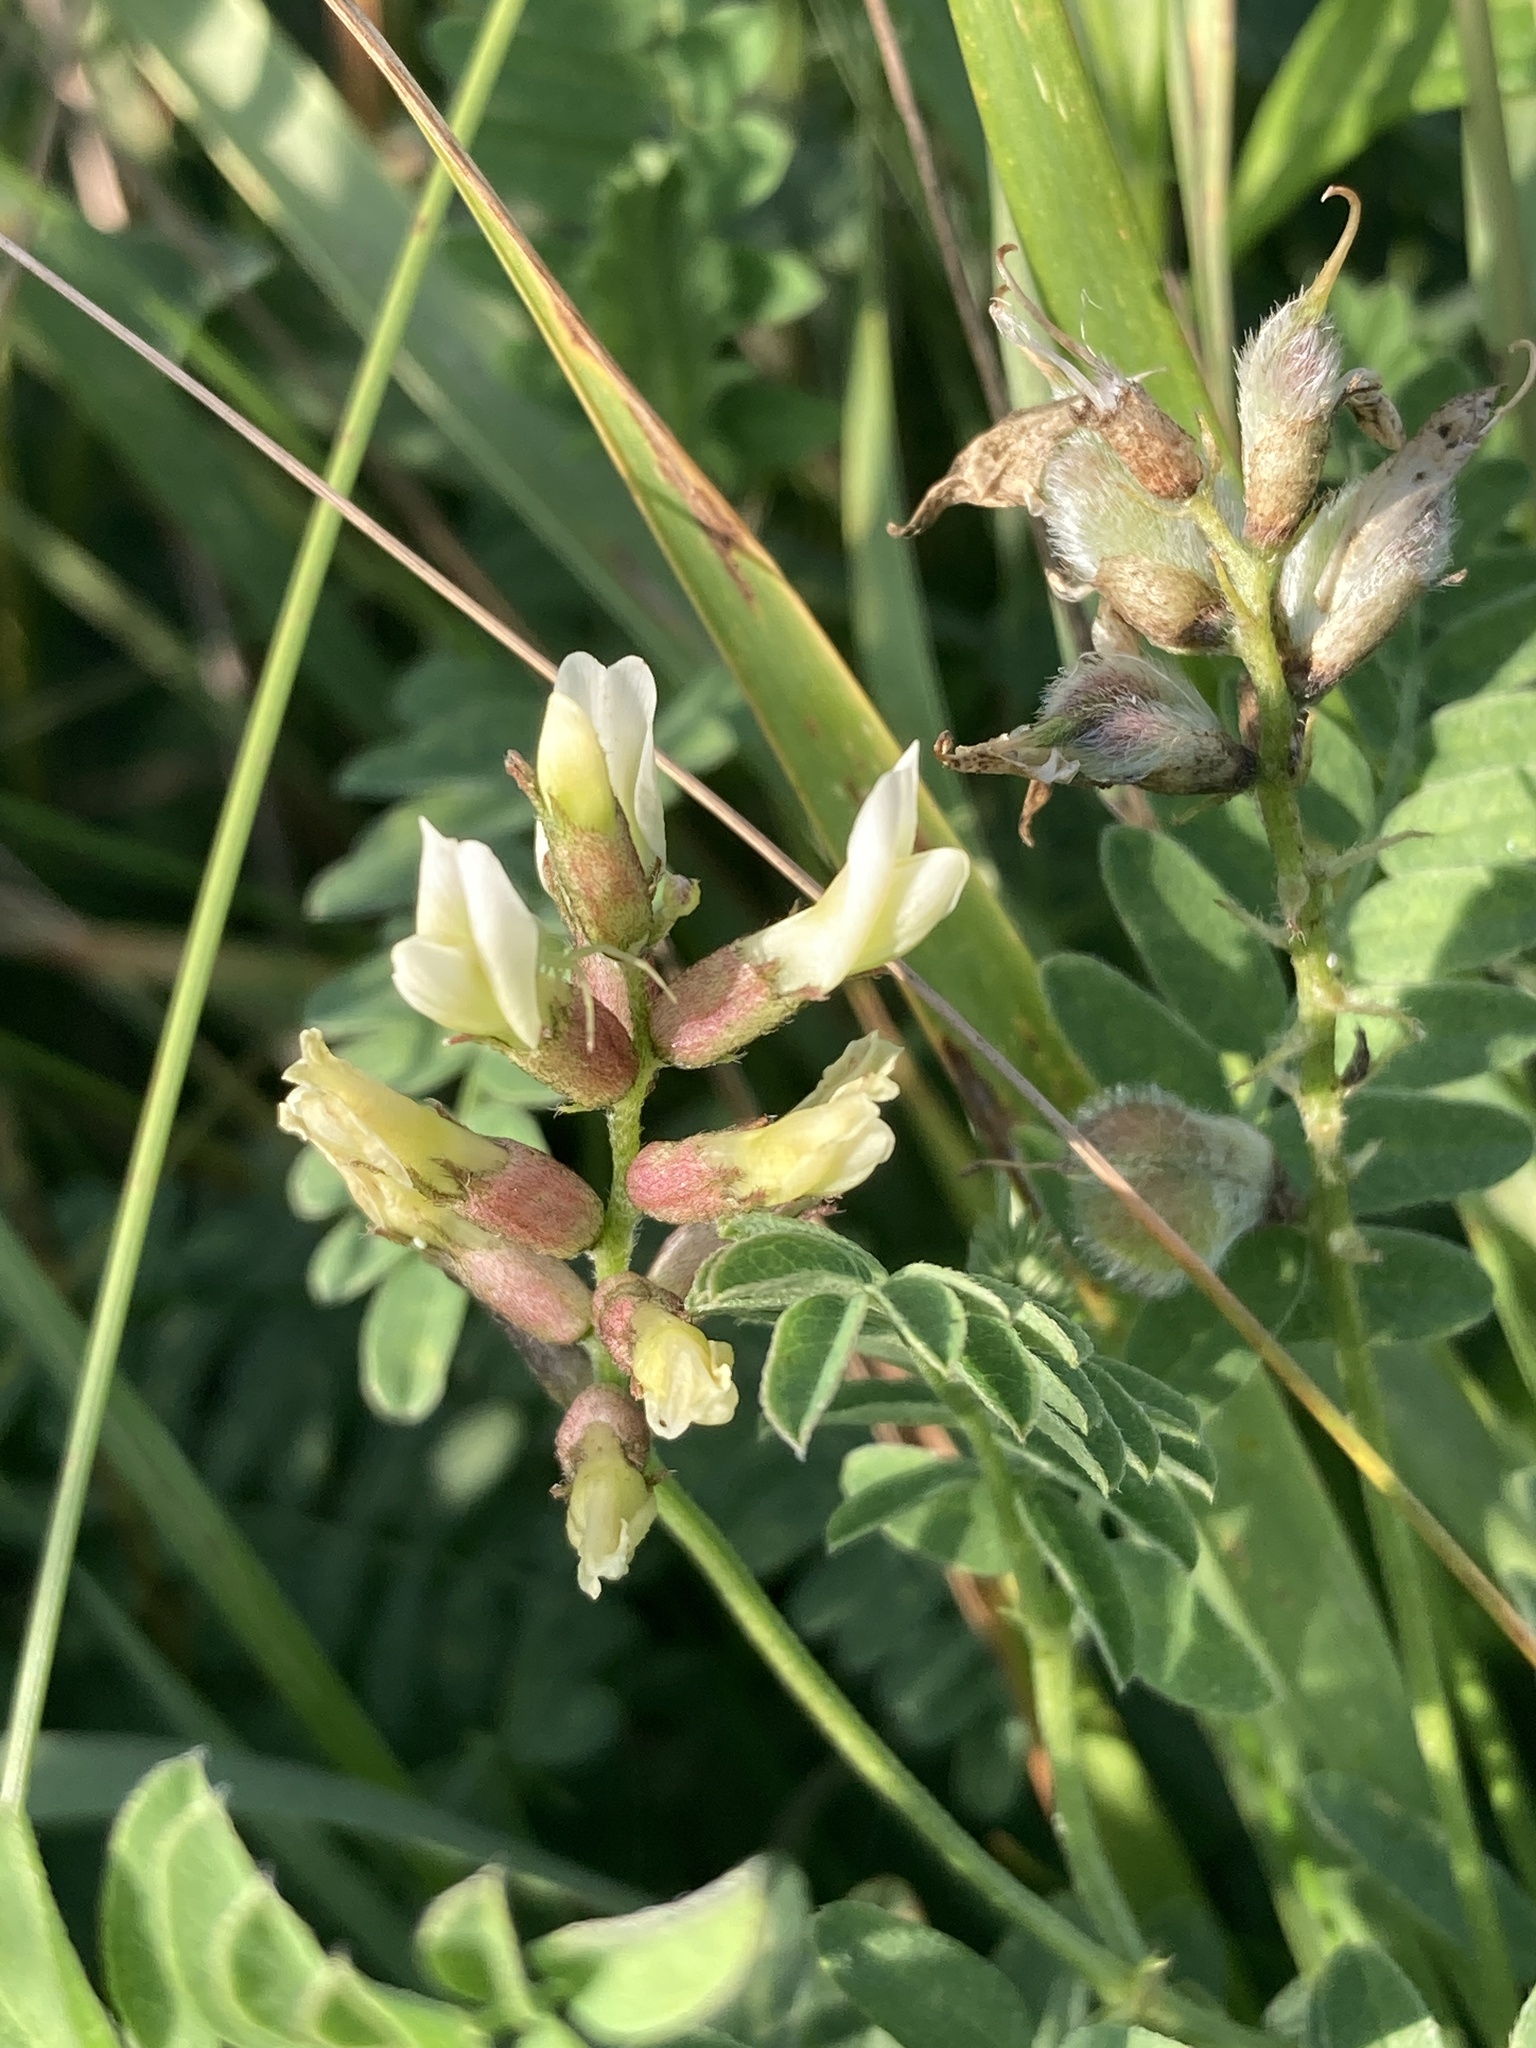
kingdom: Plantae
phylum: Tracheophyta
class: Magnoliopsida
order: Fabales
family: Fabaceae
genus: Astragalus
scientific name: Astragalus cicer
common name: Chick-pea milk-vetch
